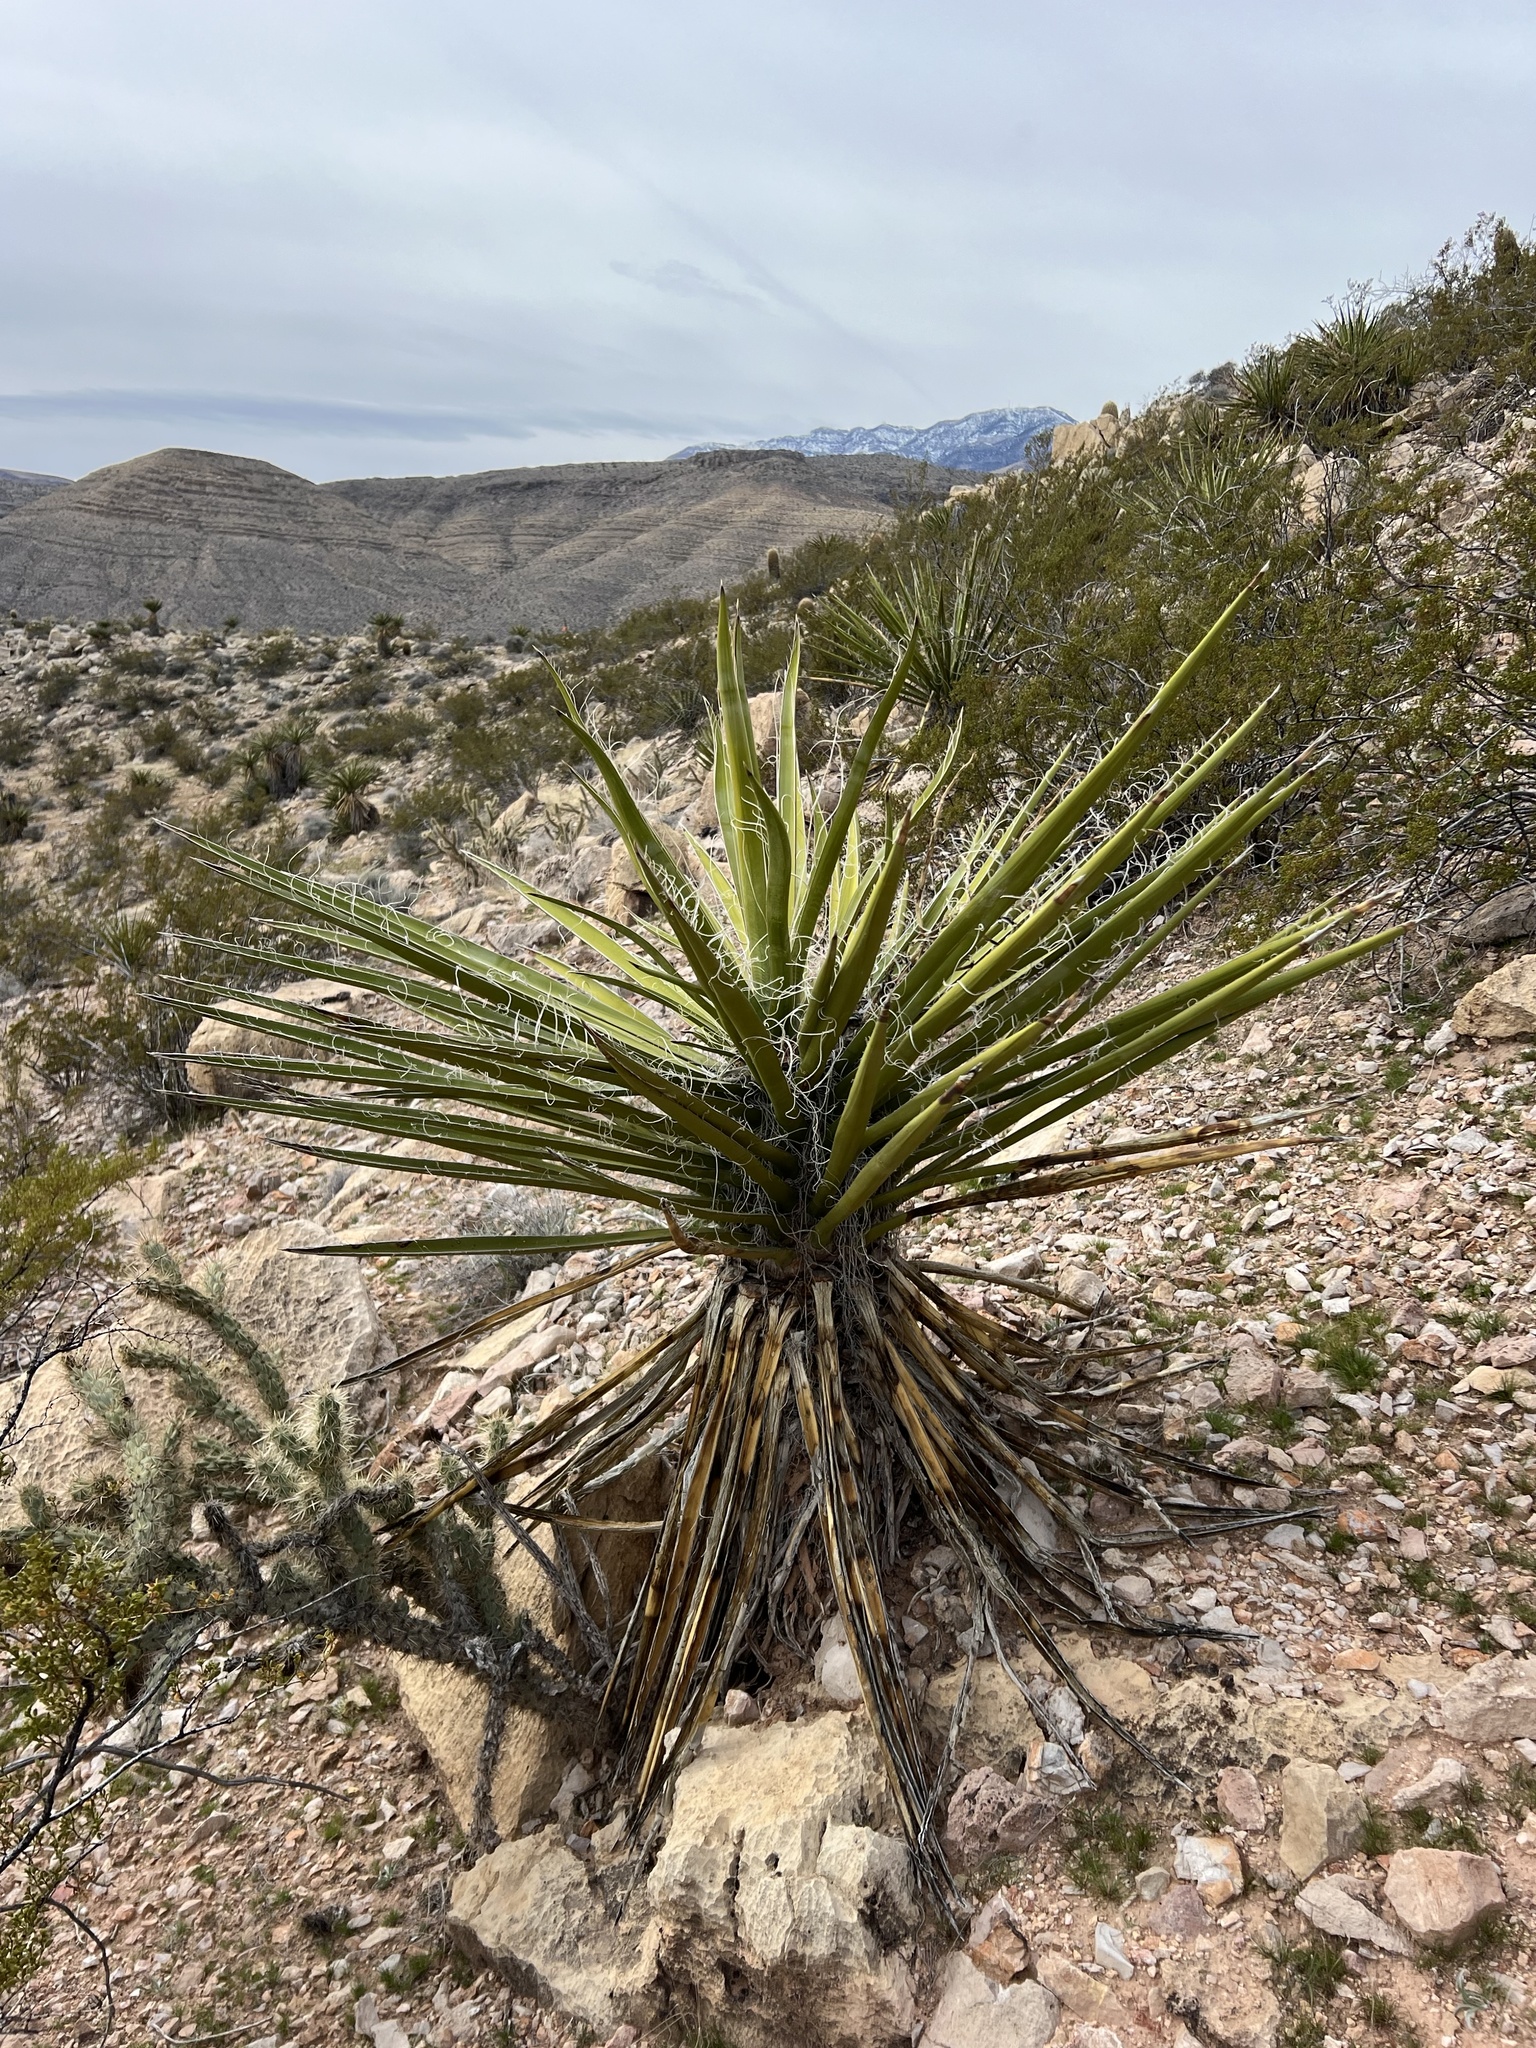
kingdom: Plantae
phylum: Tracheophyta
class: Liliopsida
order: Asparagales
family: Asparagaceae
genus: Yucca
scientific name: Yucca schidigera
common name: Mojave yucca
